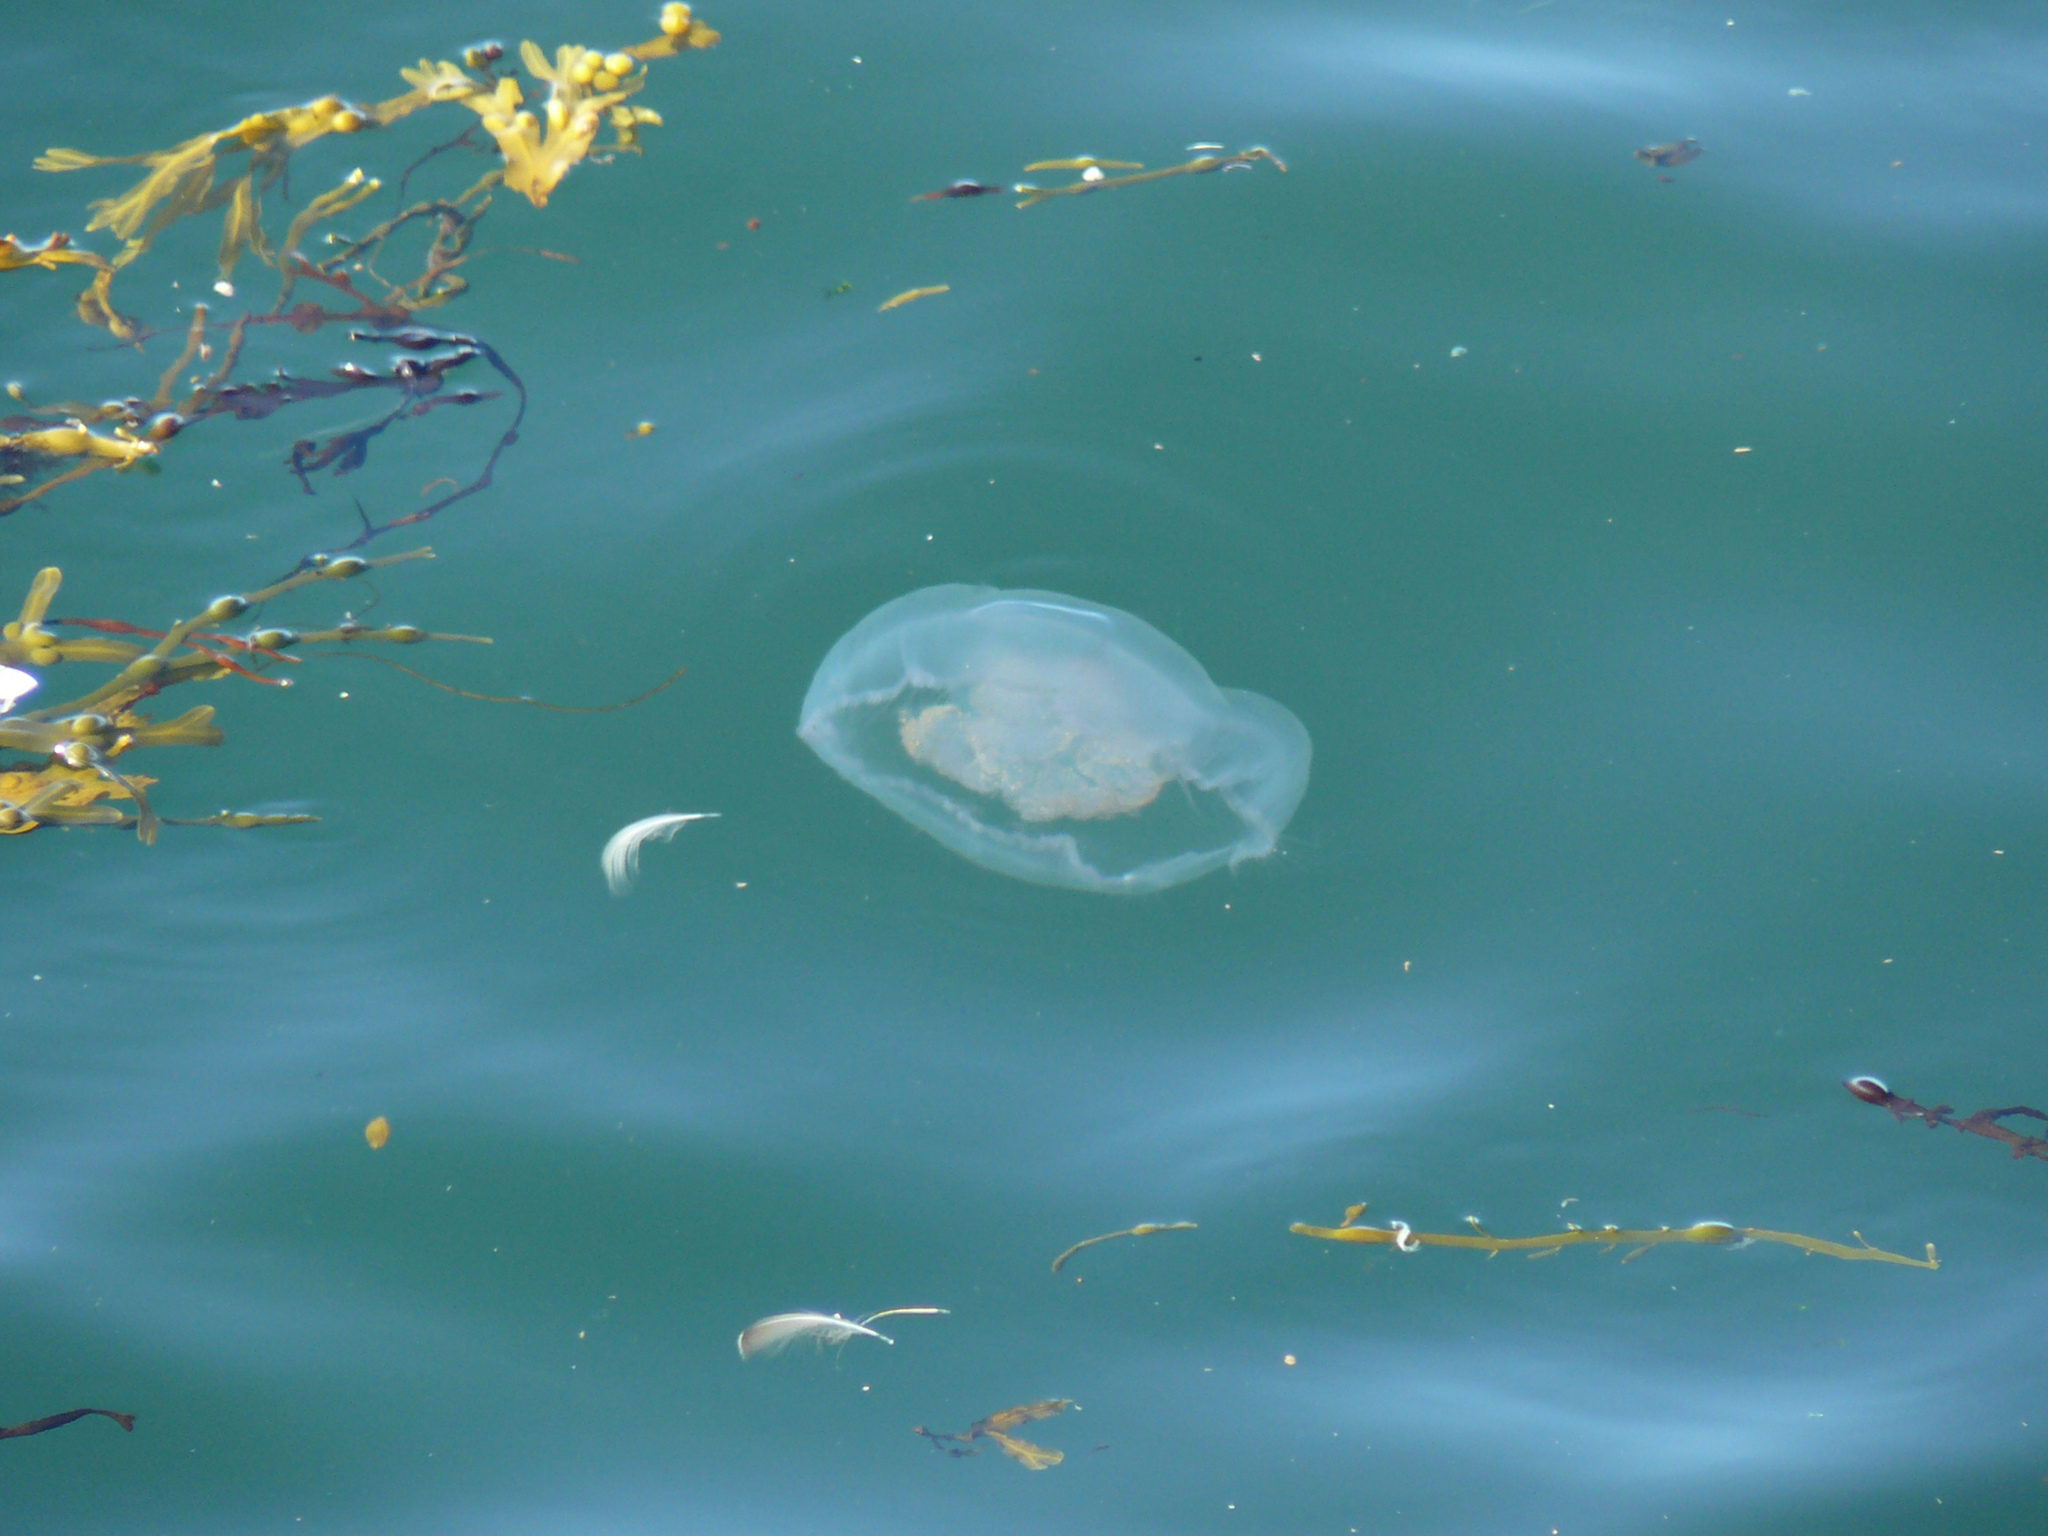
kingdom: Animalia
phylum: Cnidaria
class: Scyphozoa
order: Semaeostomeae
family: Ulmaridae
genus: Aurelia
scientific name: Aurelia aurita
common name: Moon jellyfish
